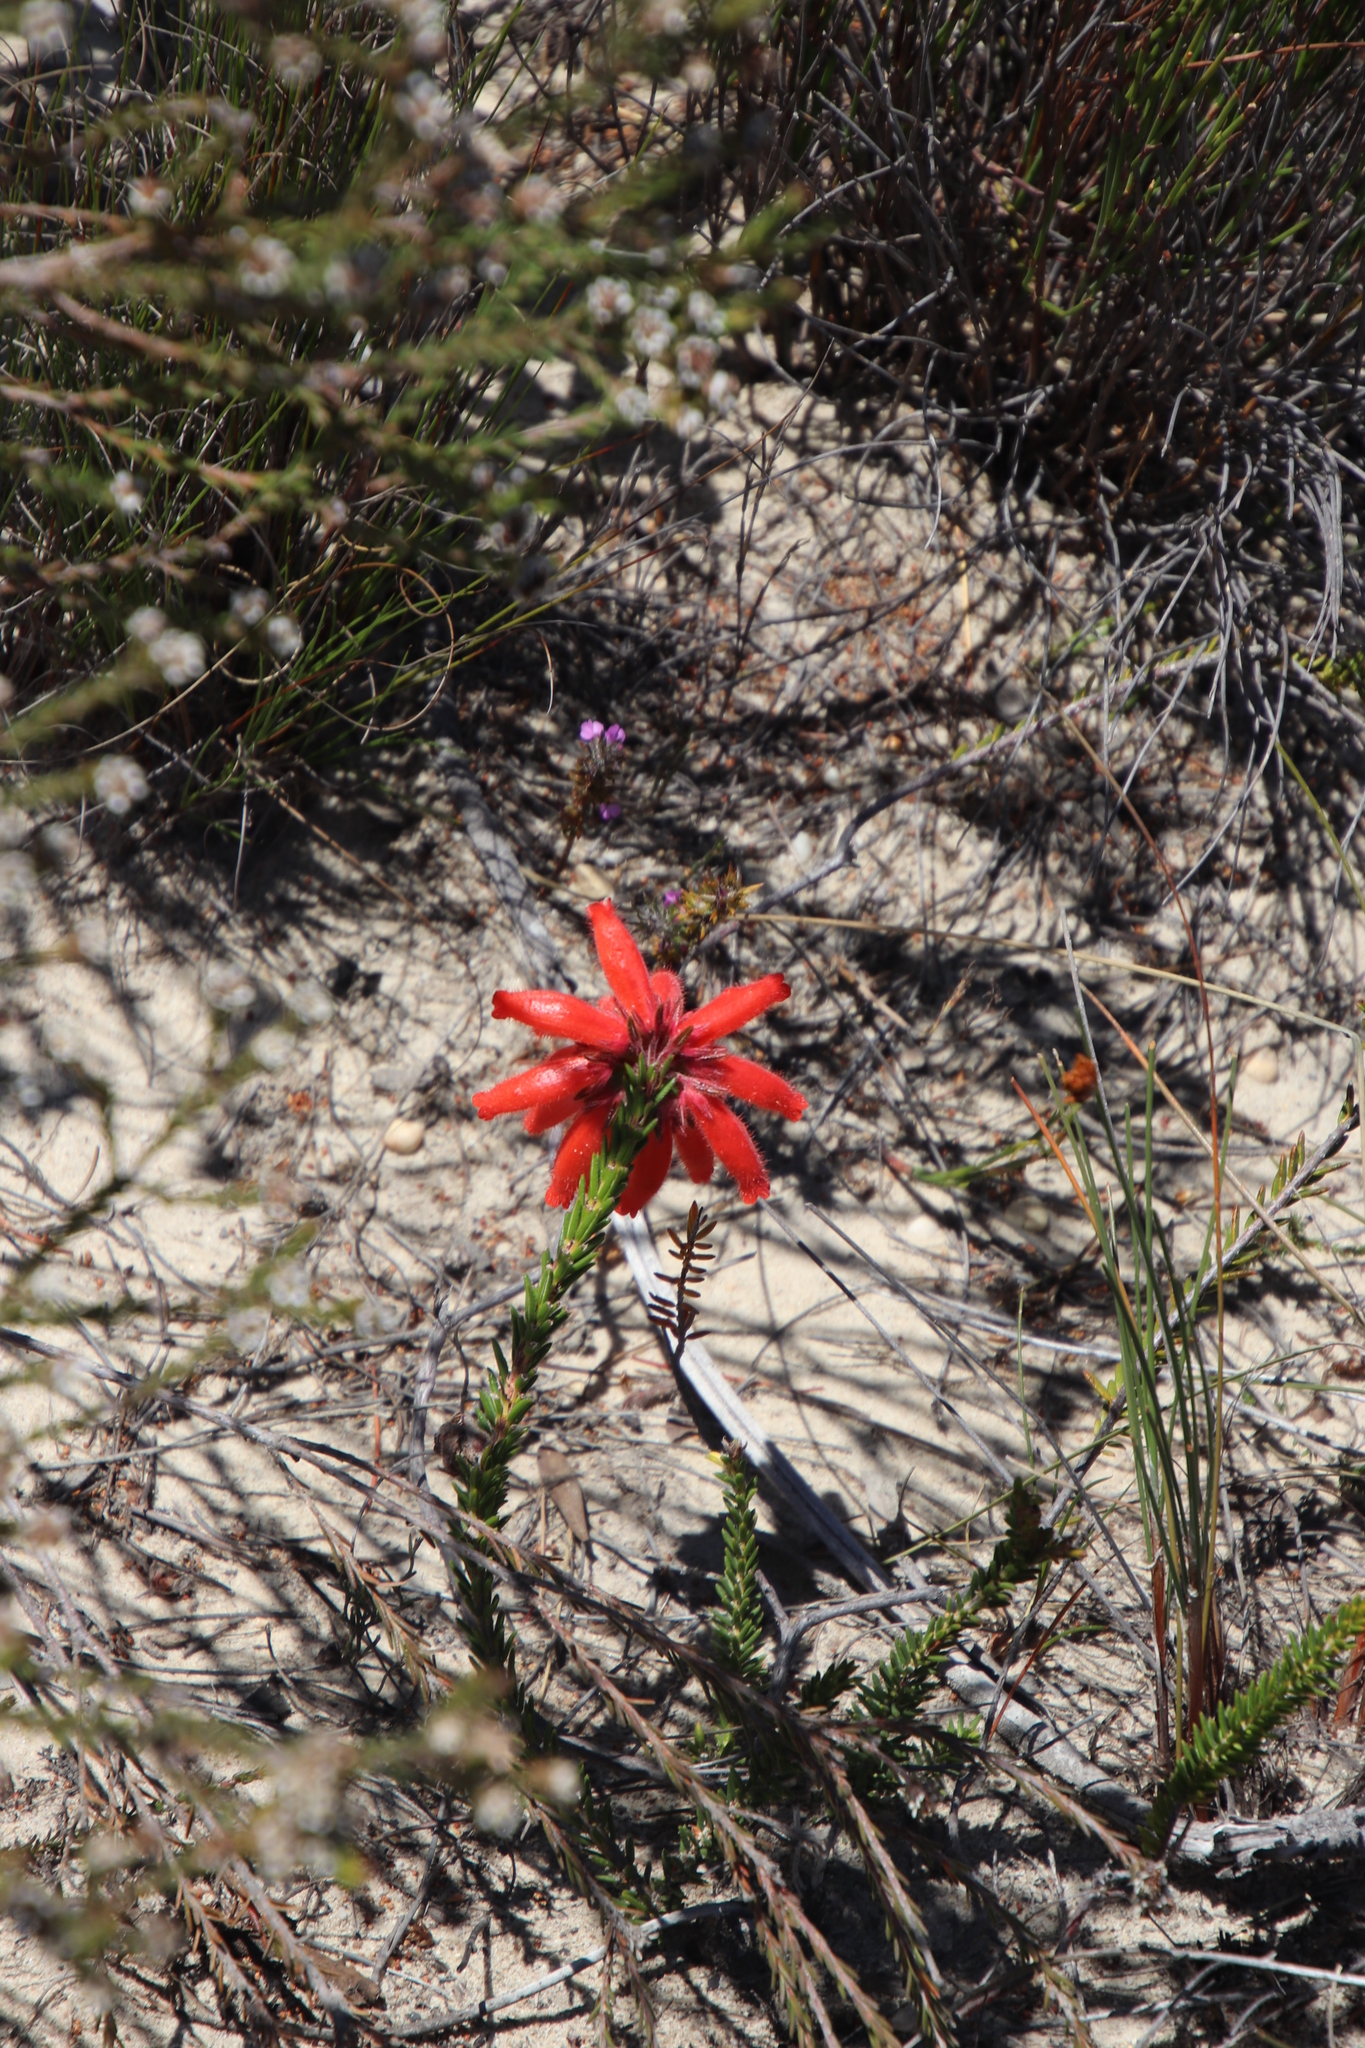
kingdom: Plantae
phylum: Tracheophyta
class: Magnoliopsida
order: Ericales
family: Ericaceae
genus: Erica
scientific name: Erica cerinthoides
